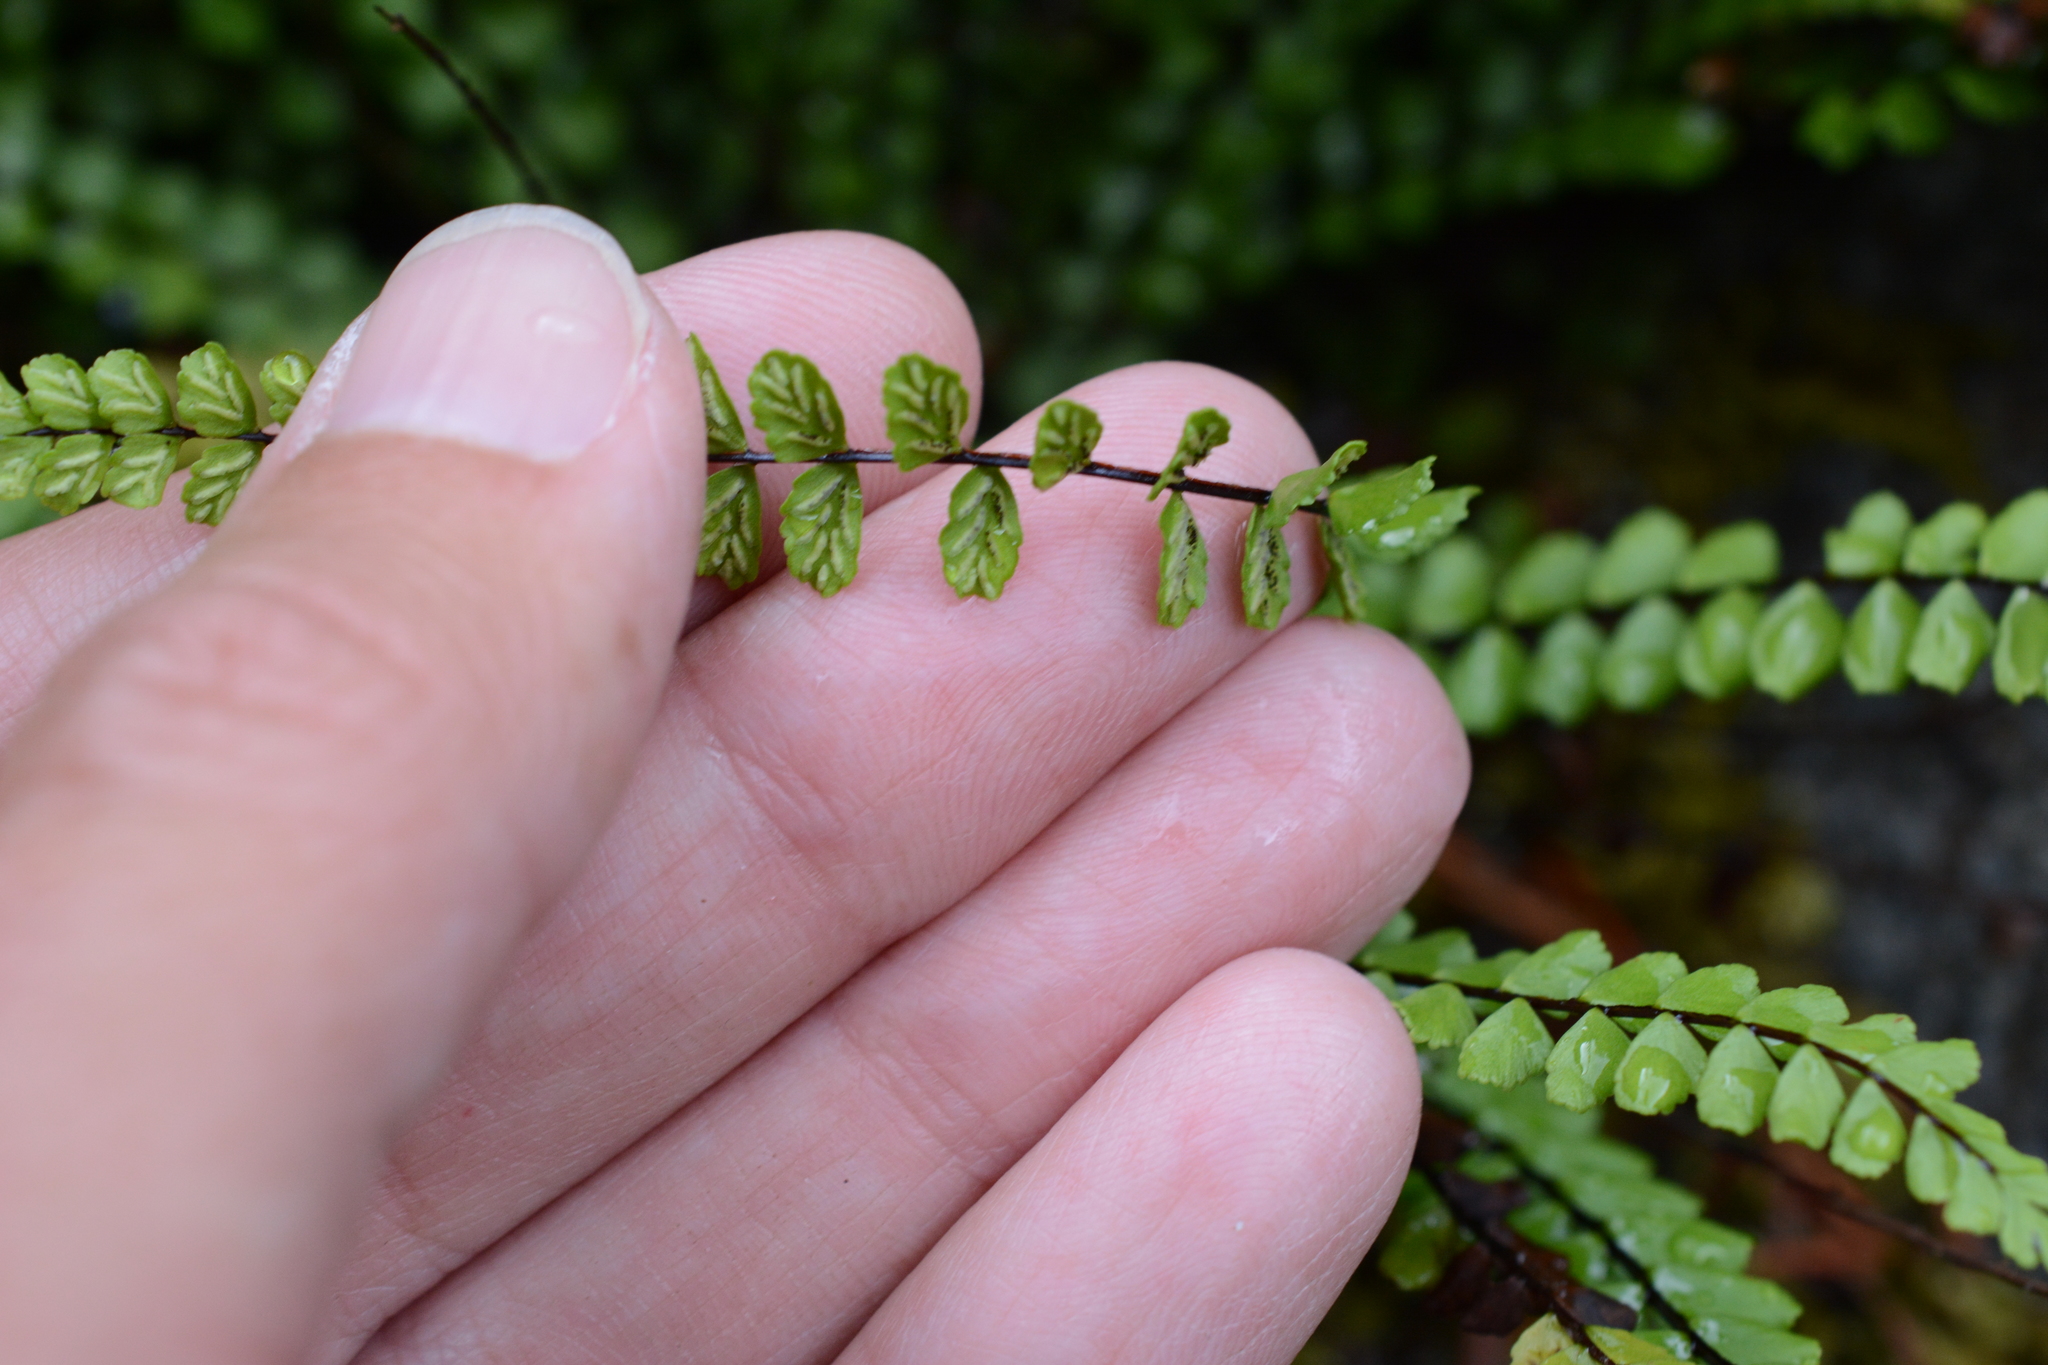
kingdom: Plantae
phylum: Tracheophyta
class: Polypodiopsida
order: Polypodiales
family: Aspleniaceae
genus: Asplenium
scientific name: Asplenium trichomanes
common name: Maidenhair spleenwort
